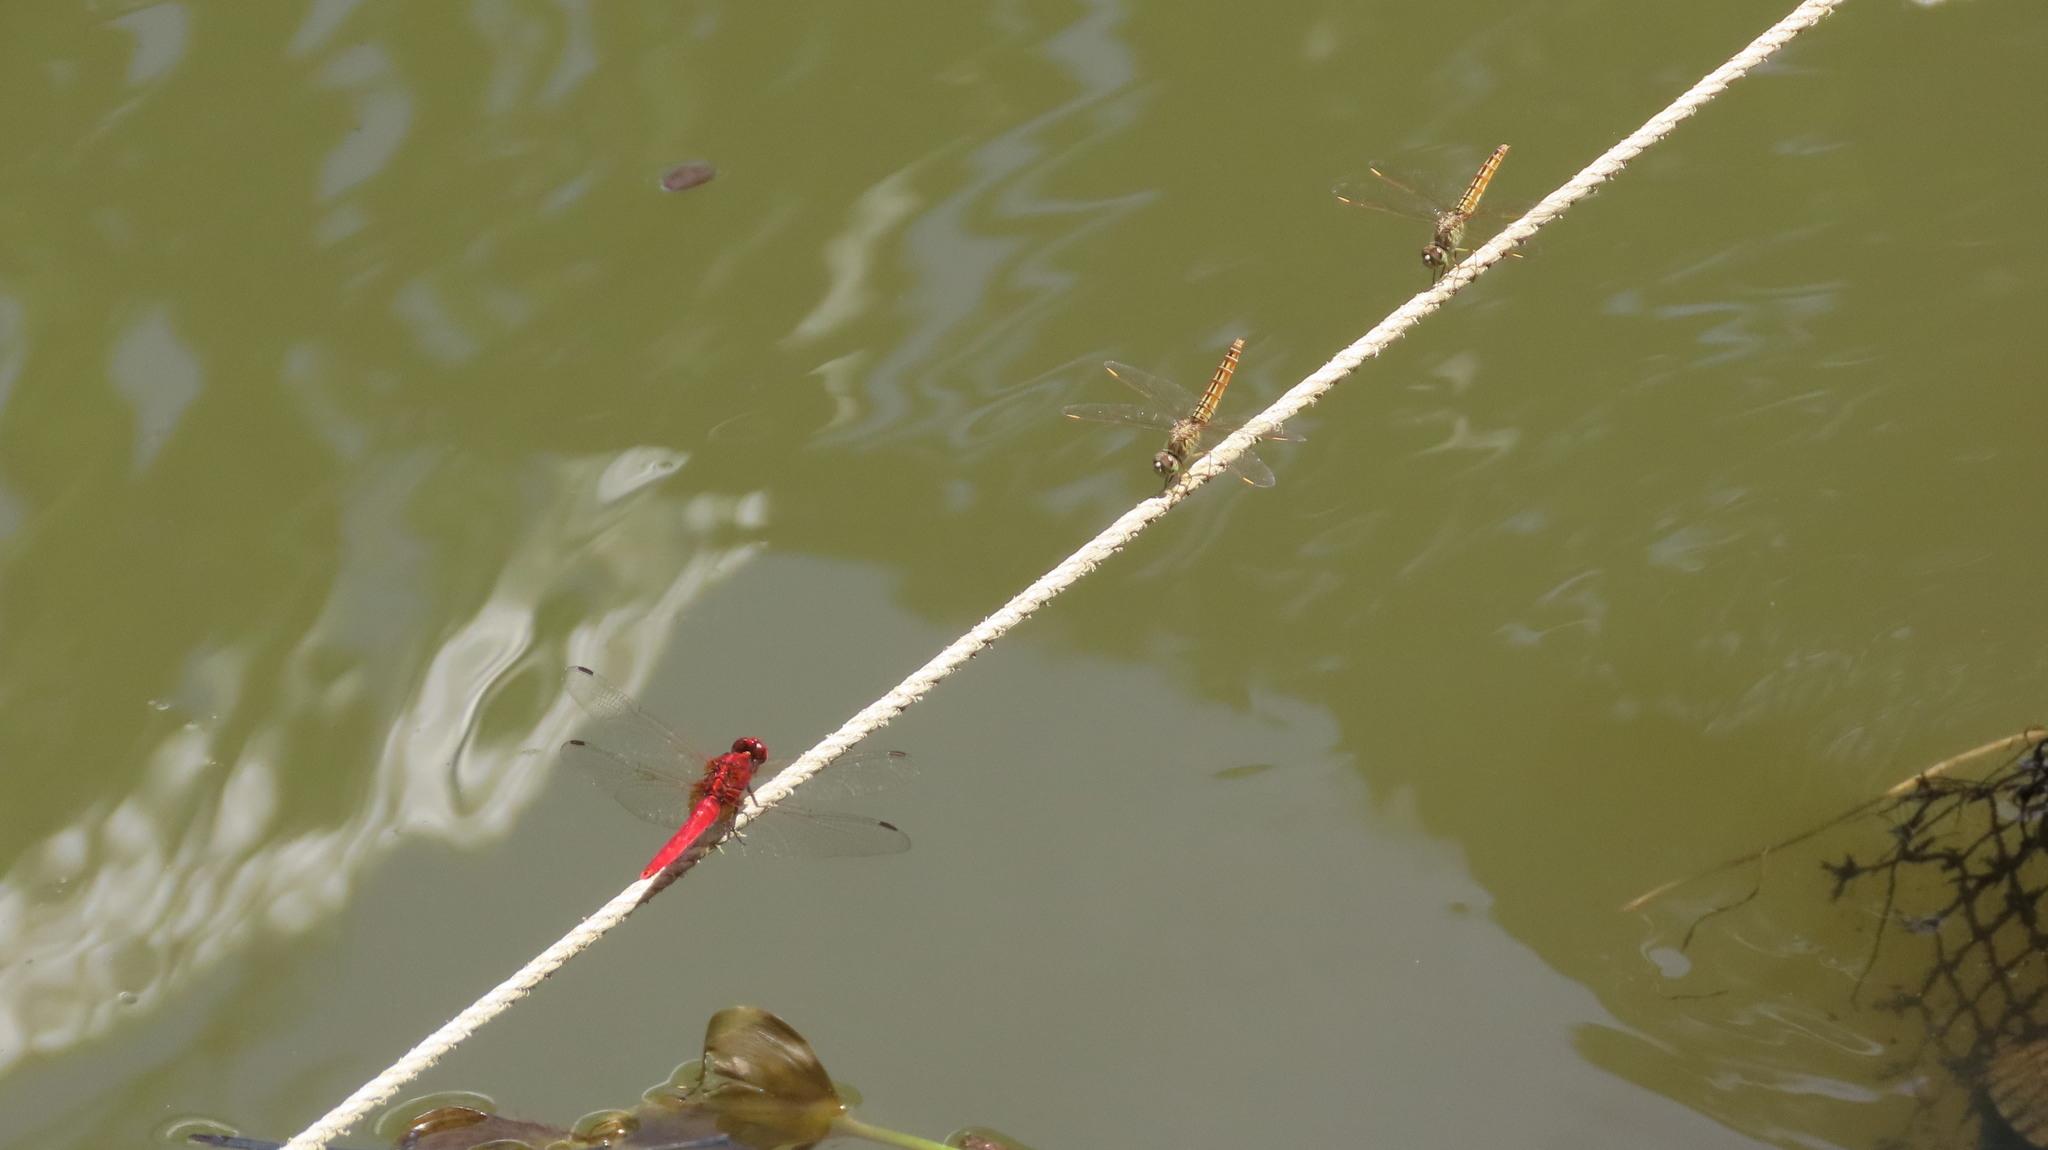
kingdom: Animalia
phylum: Arthropoda
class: Insecta
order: Odonata
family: Libellulidae
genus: Rhodothemis
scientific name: Rhodothemis rufa
